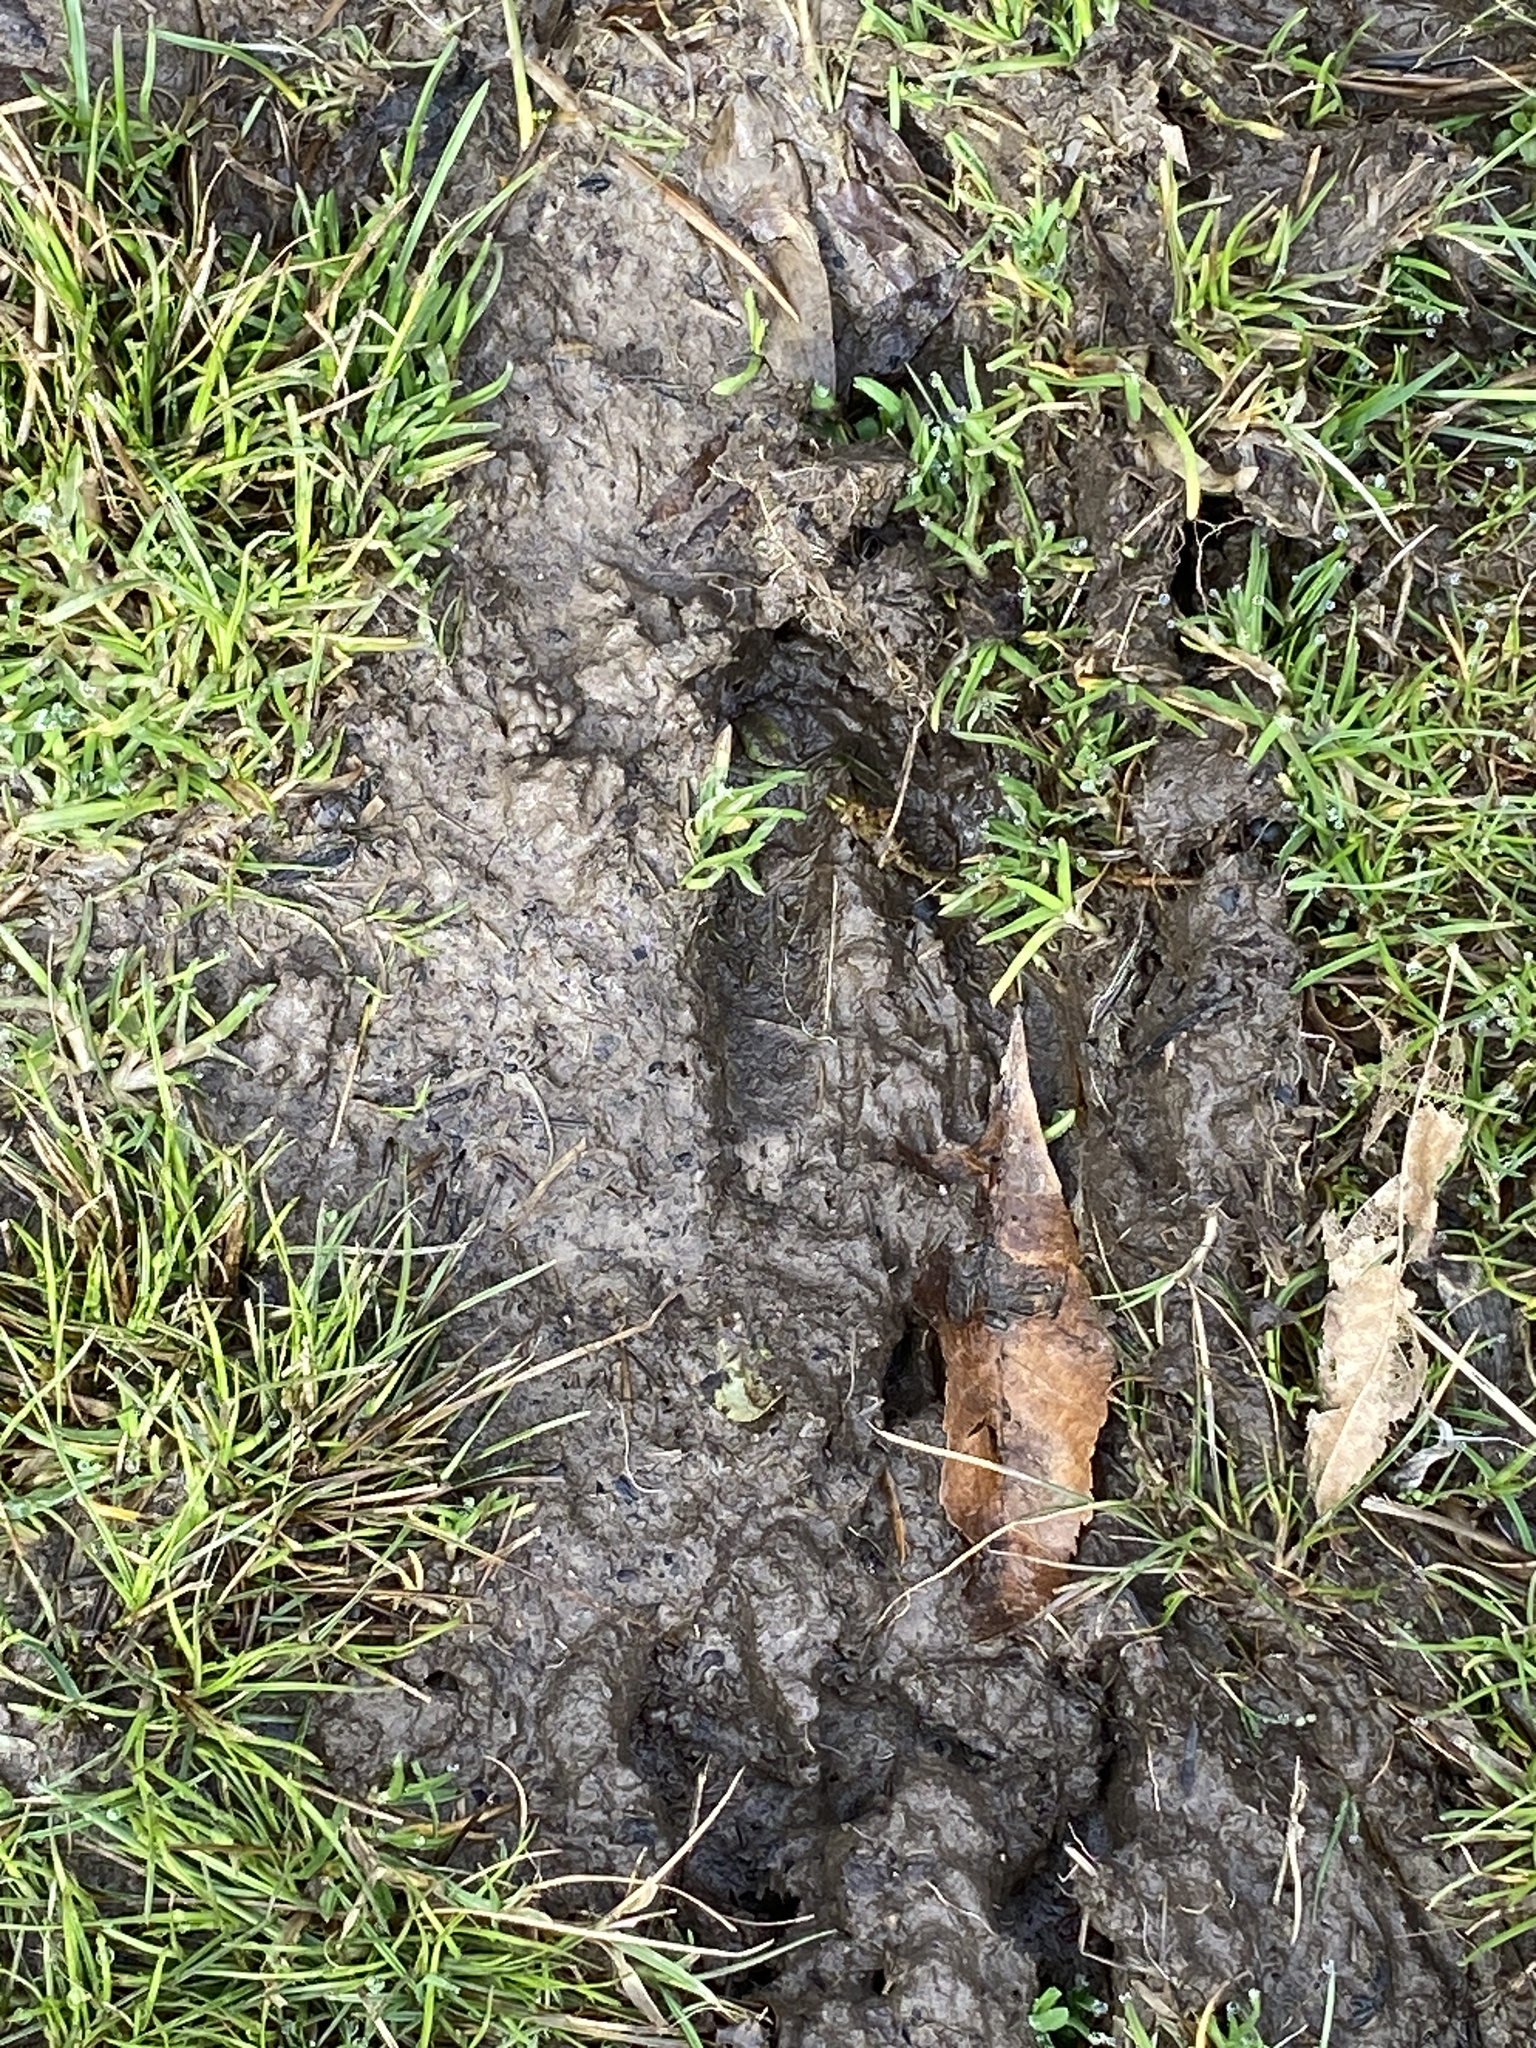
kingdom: Animalia
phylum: Chordata
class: Mammalia
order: Artiodactyla
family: Cervidae
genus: Odocoileus
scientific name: Odocoileus virginianus
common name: White-tailed deer
